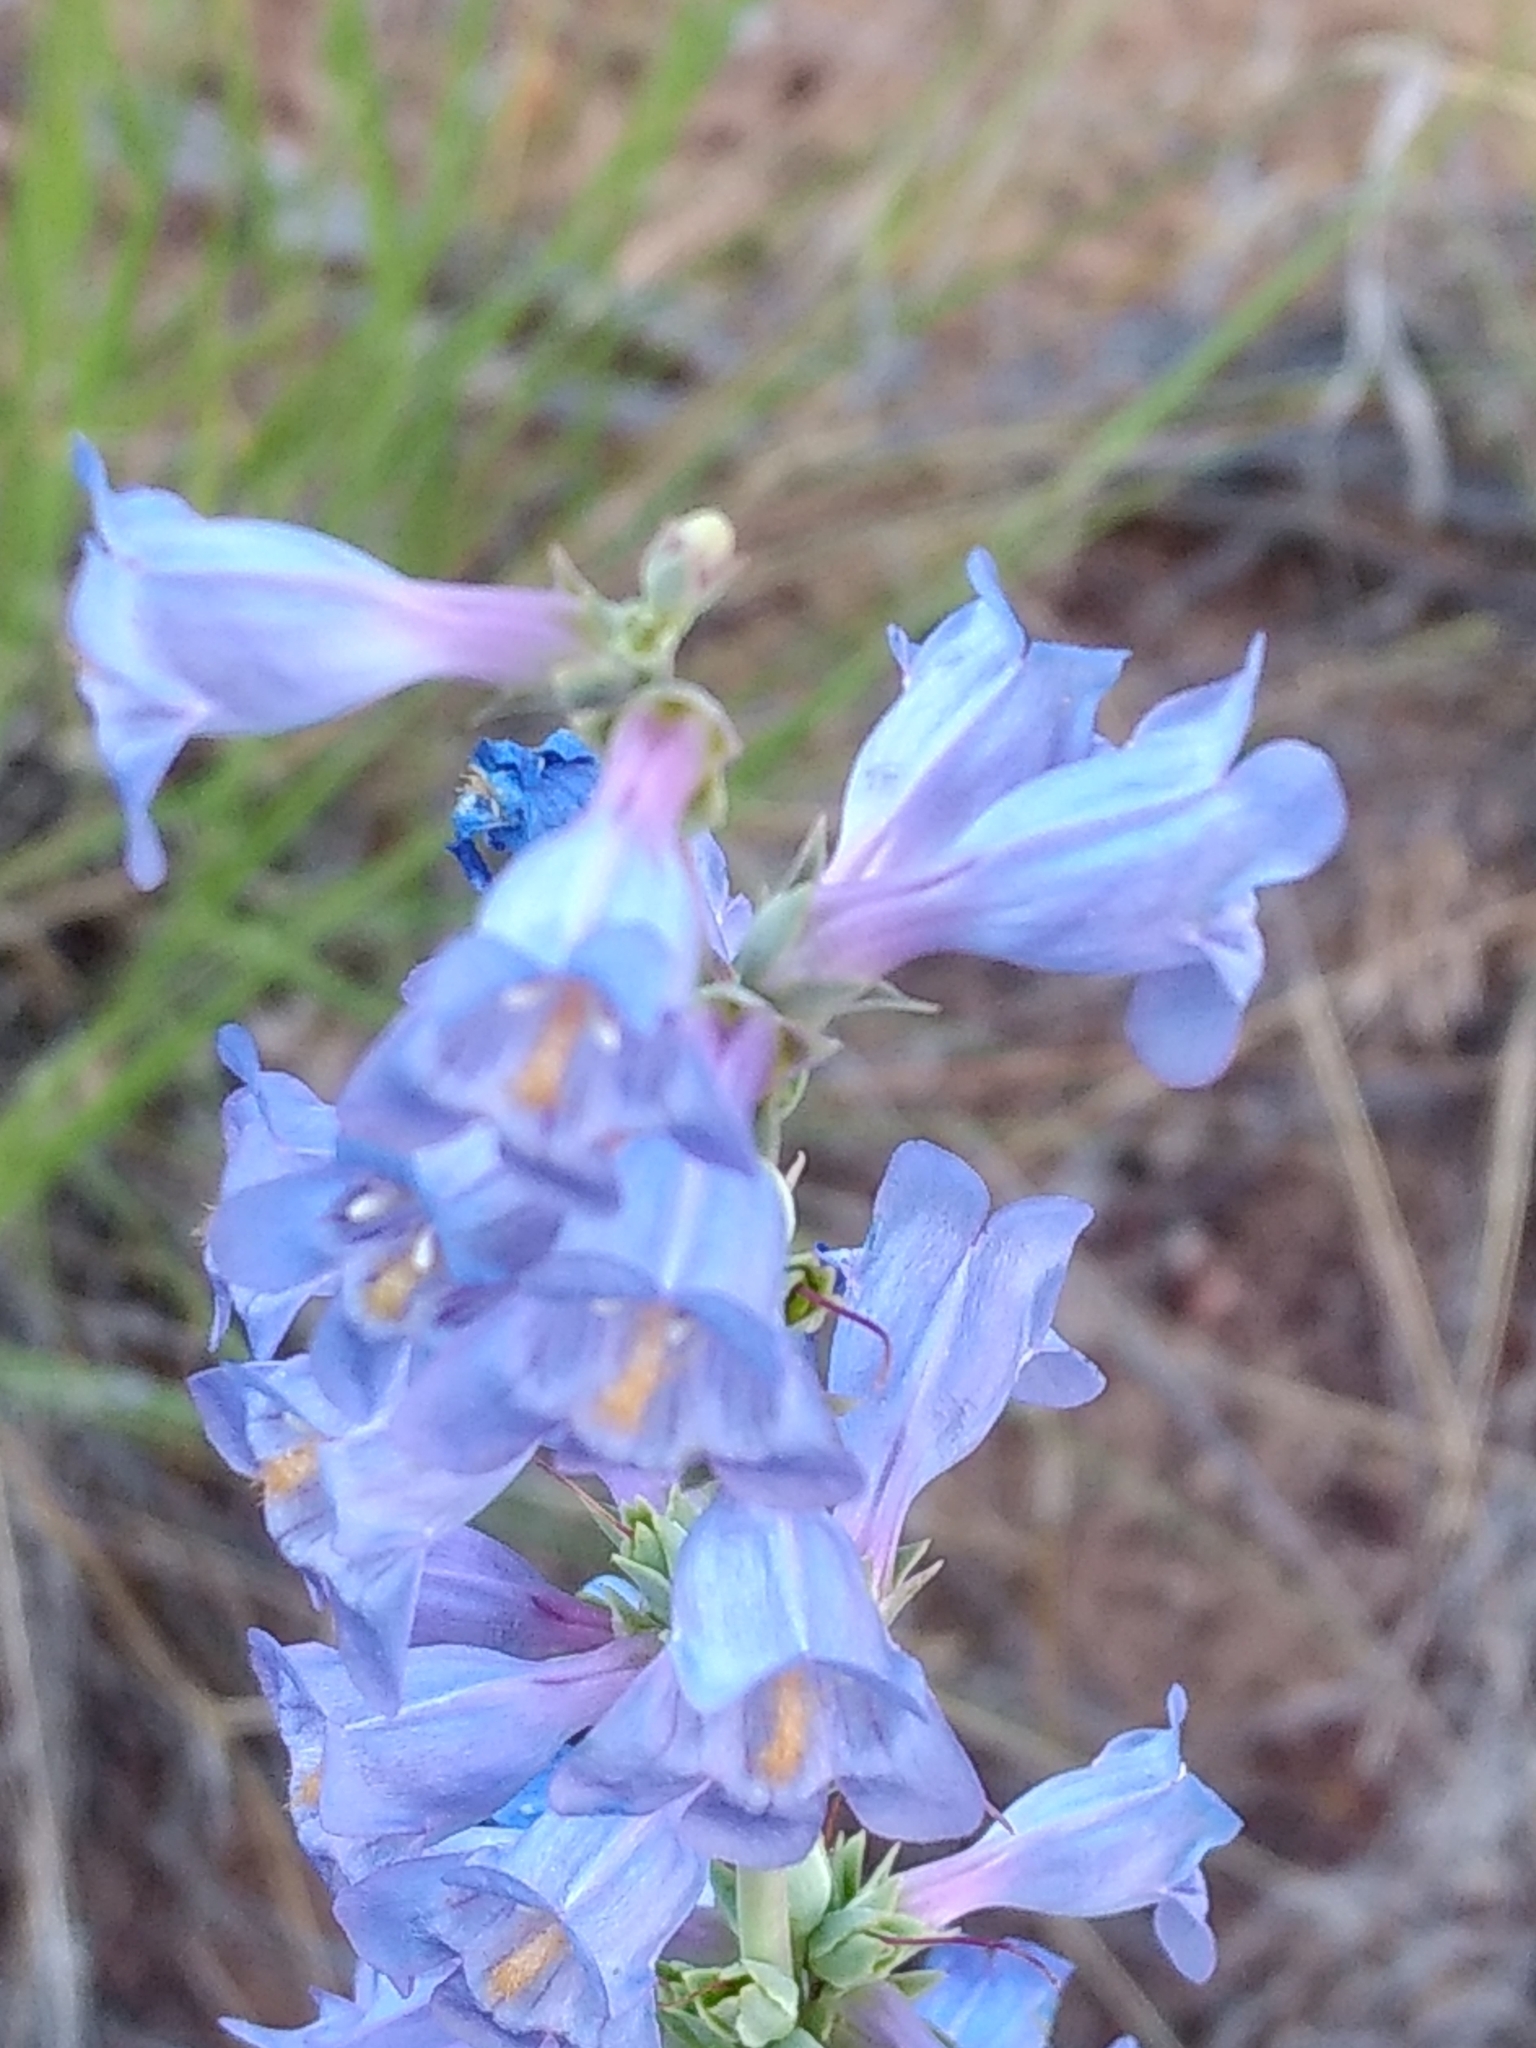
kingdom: Plantae
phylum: Tracheophyta
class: Magnoliopsida
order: Lamiales
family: Plantaginaceae
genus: Penstemon
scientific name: Penstemon pachyphyllus
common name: Thick-leaf penstemon
